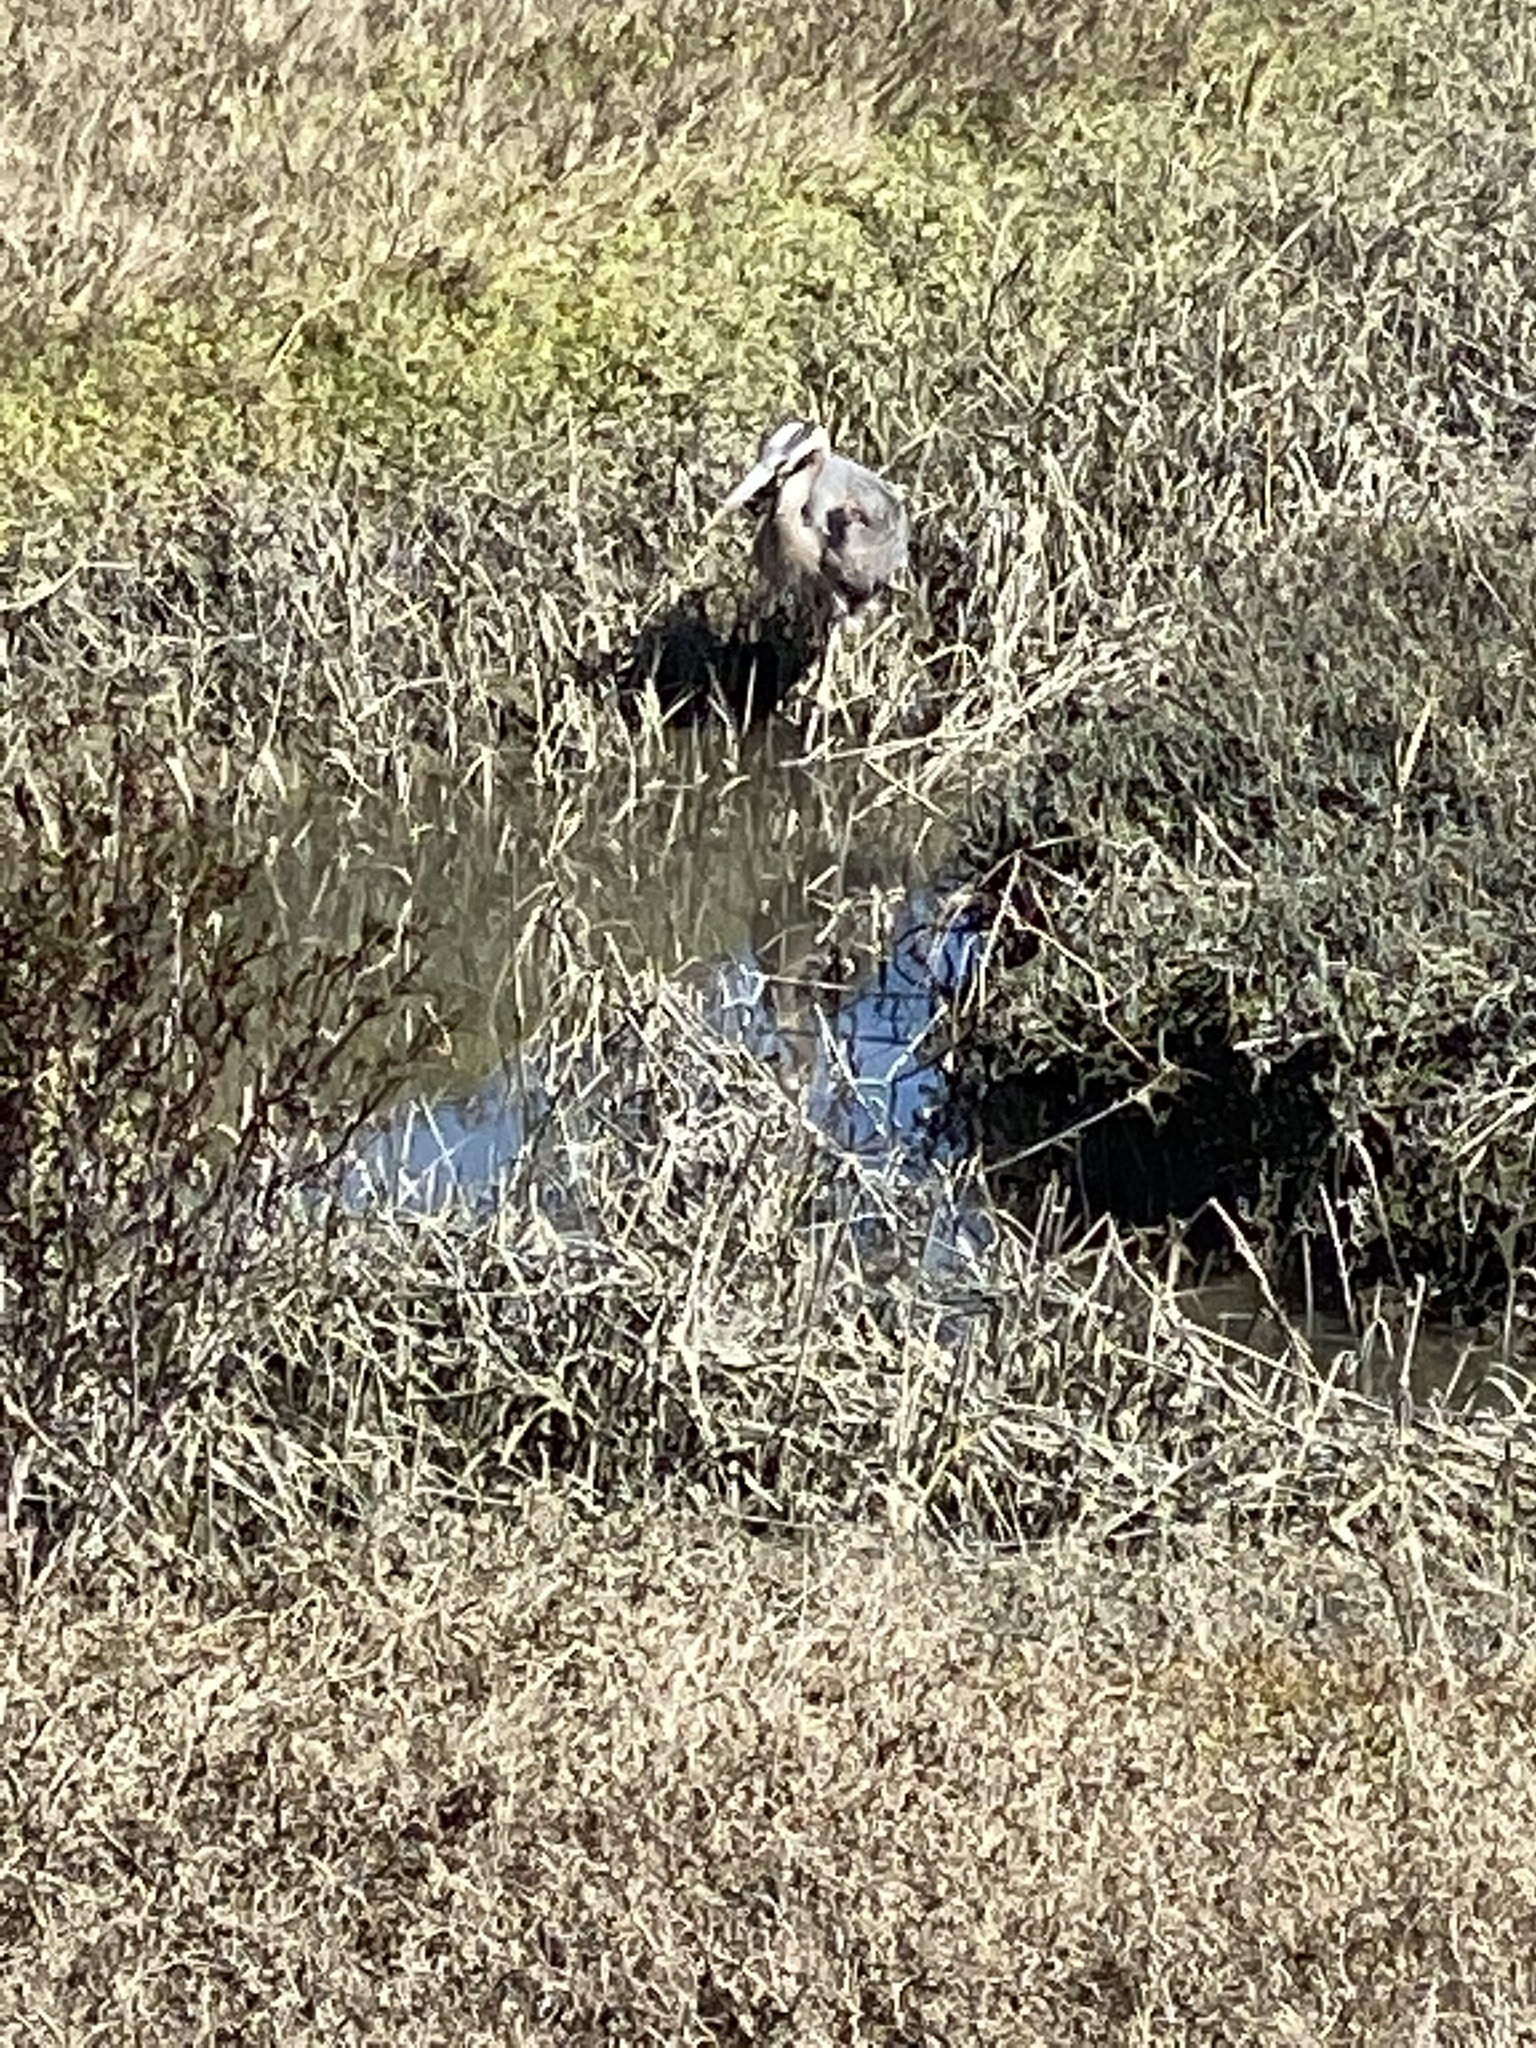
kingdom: Animalia
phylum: Chordata
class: Aves
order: Pelecaniformes
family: Ardeidae
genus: Ardea
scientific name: Ardea herodias
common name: Great blue heron
